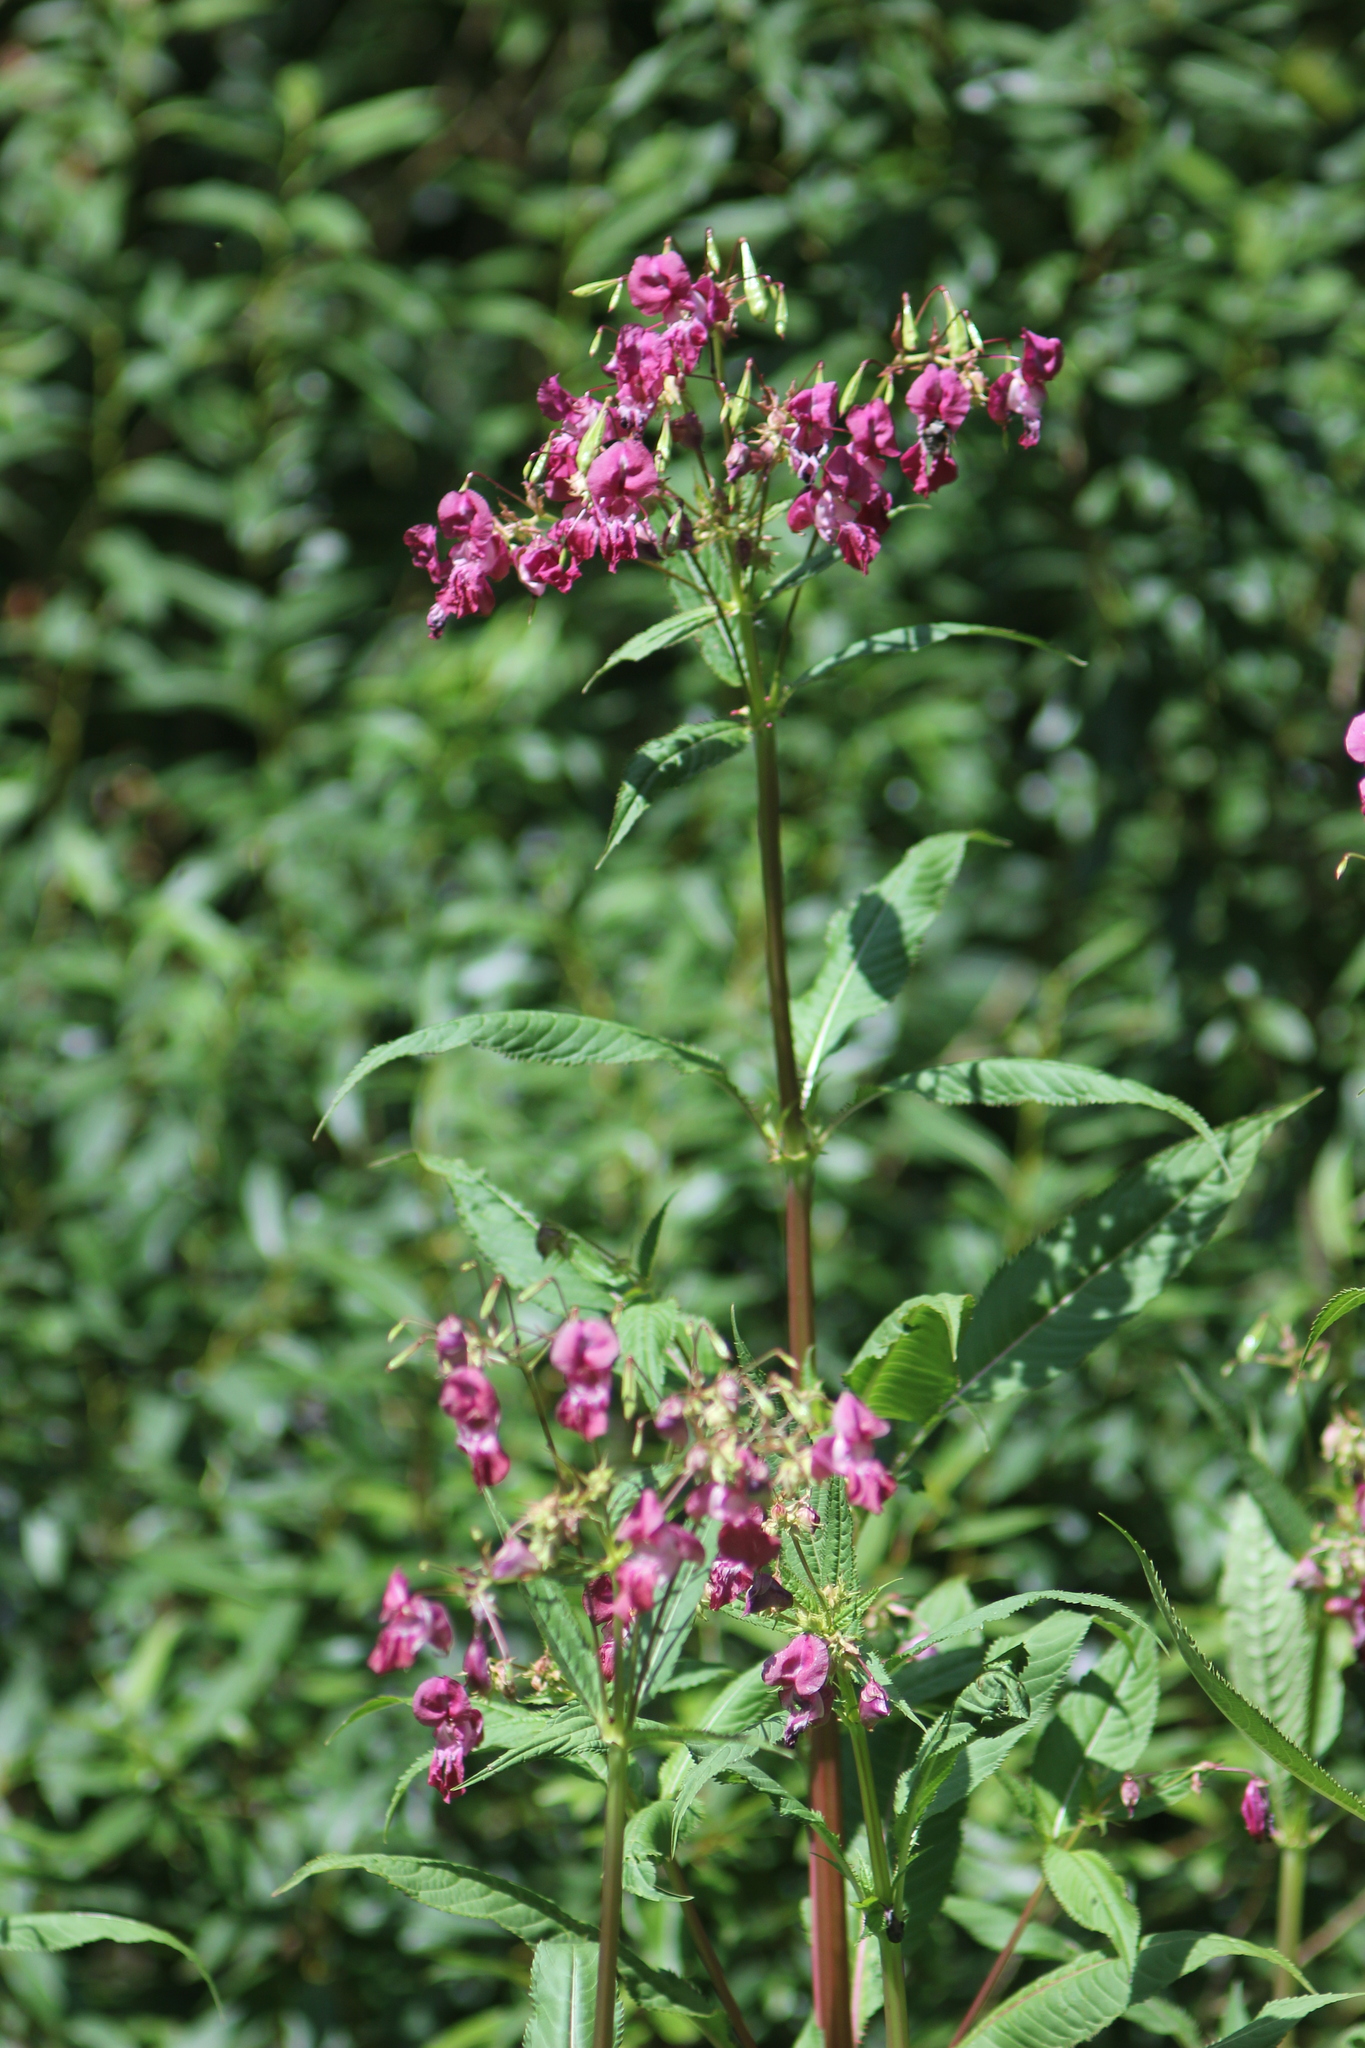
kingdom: Plantae
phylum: Tracheophyta
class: Magnoliopsida
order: Ericales
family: Balsaminaceae
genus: Impatiens
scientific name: Impatiens glandulifera
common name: Himalayan balsam
